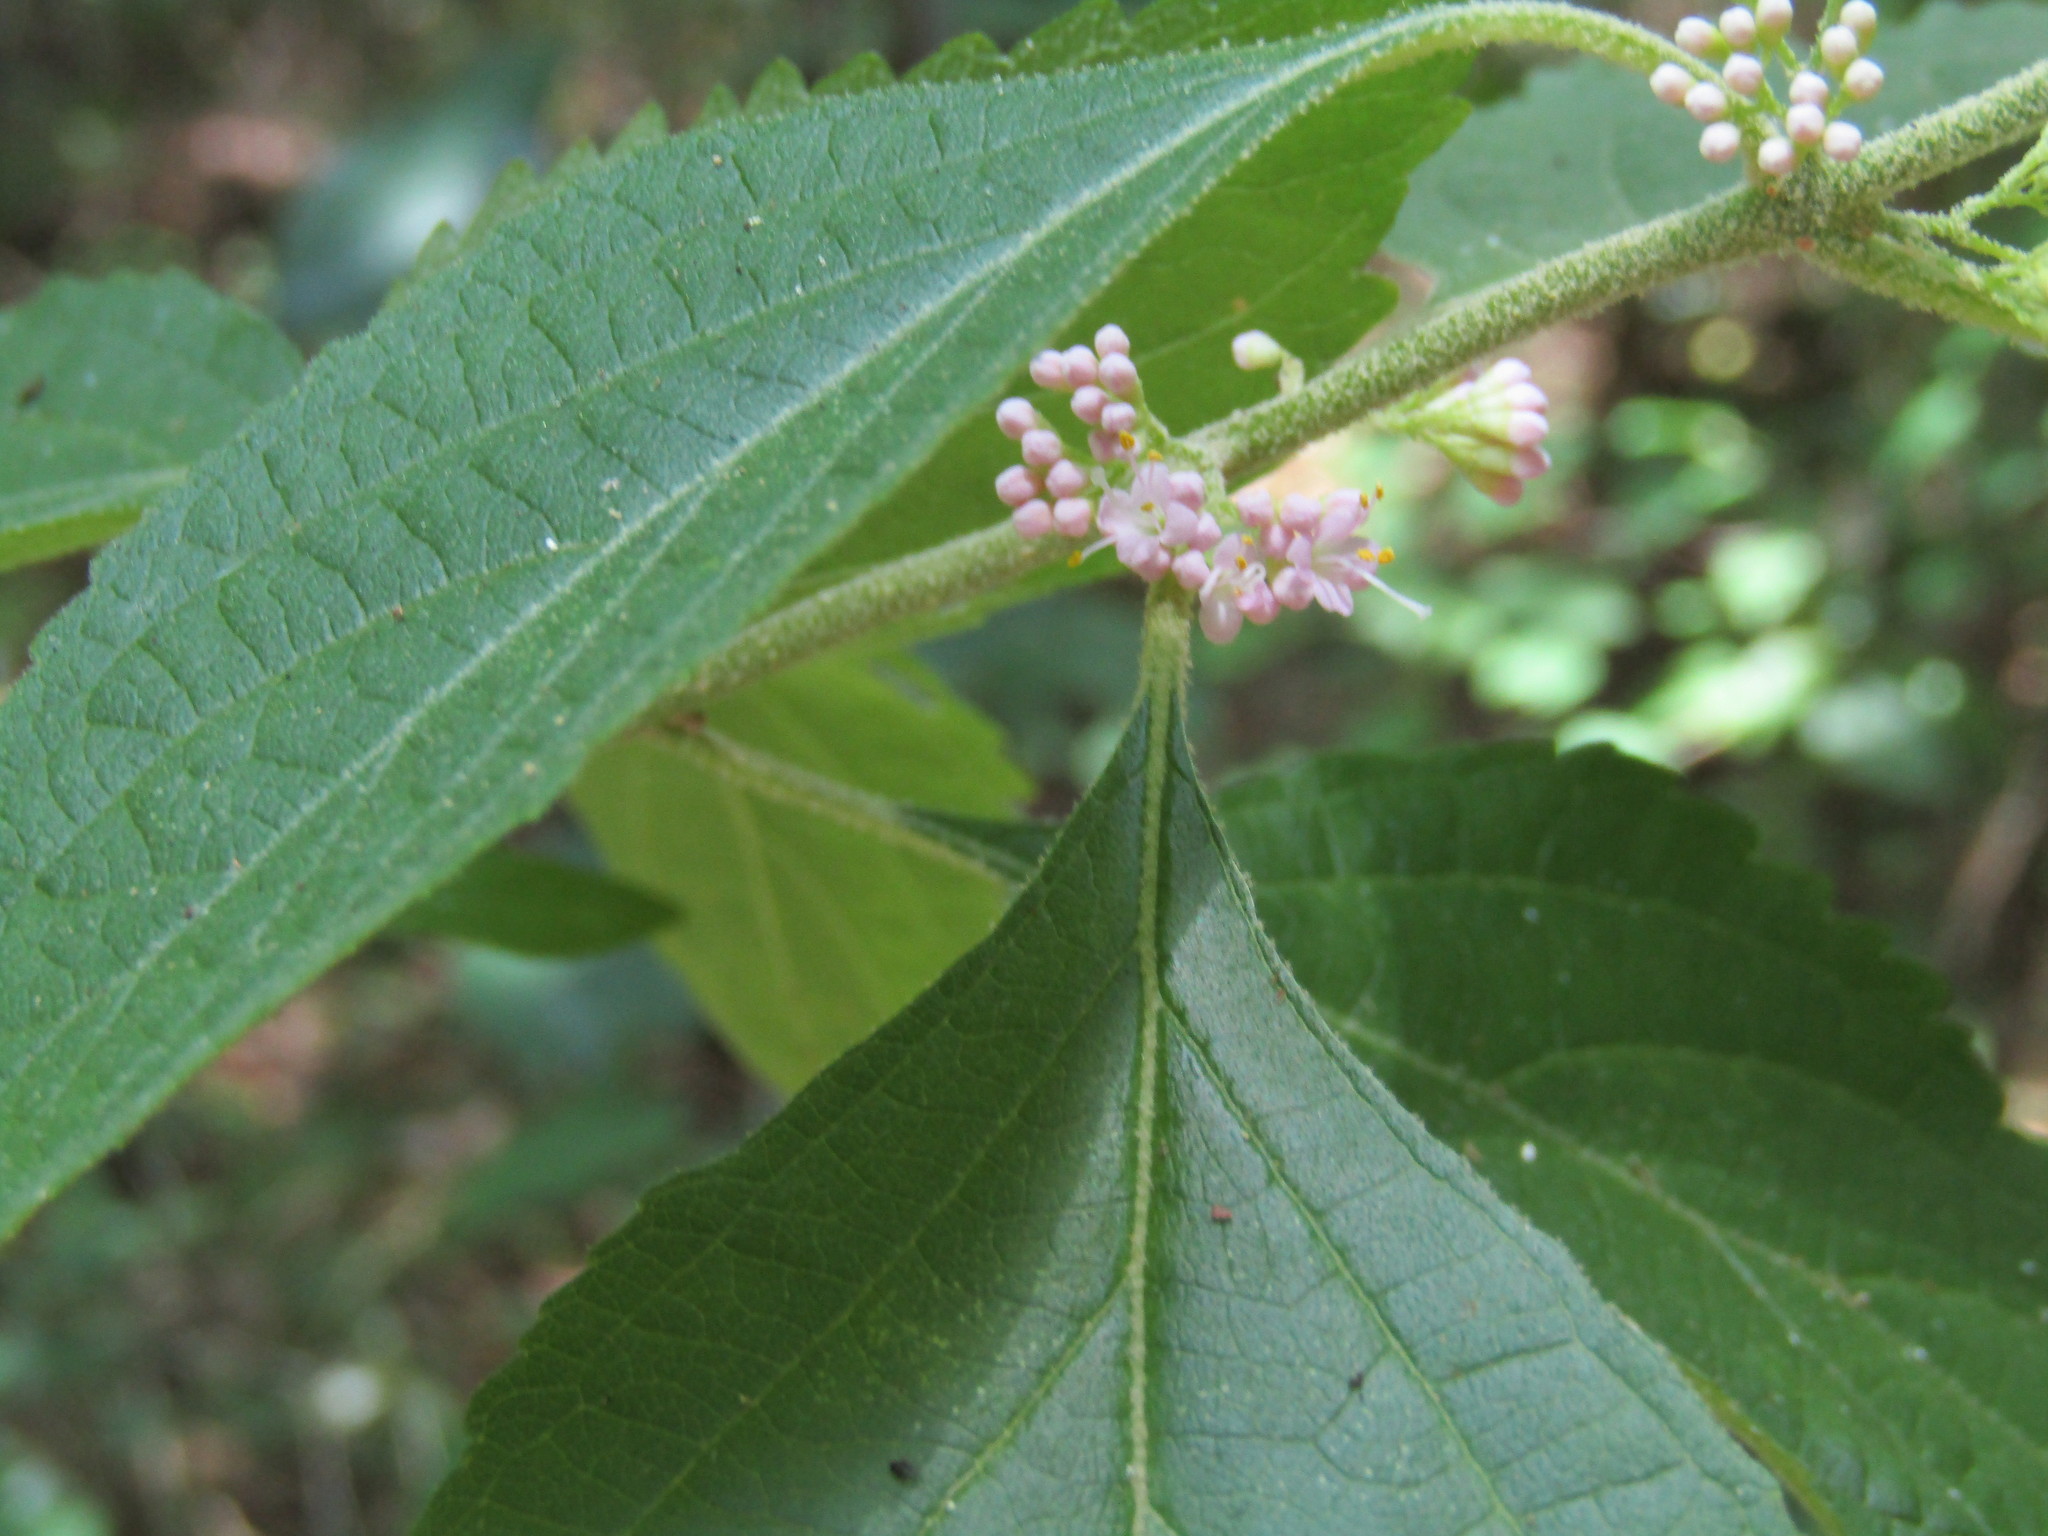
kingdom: Plantae
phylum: Tracheophyta
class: Magnoliopsida
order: Lamiales
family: Lamiaceae
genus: Callicarpa
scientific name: Callicarpa americana
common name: American beautyberry
